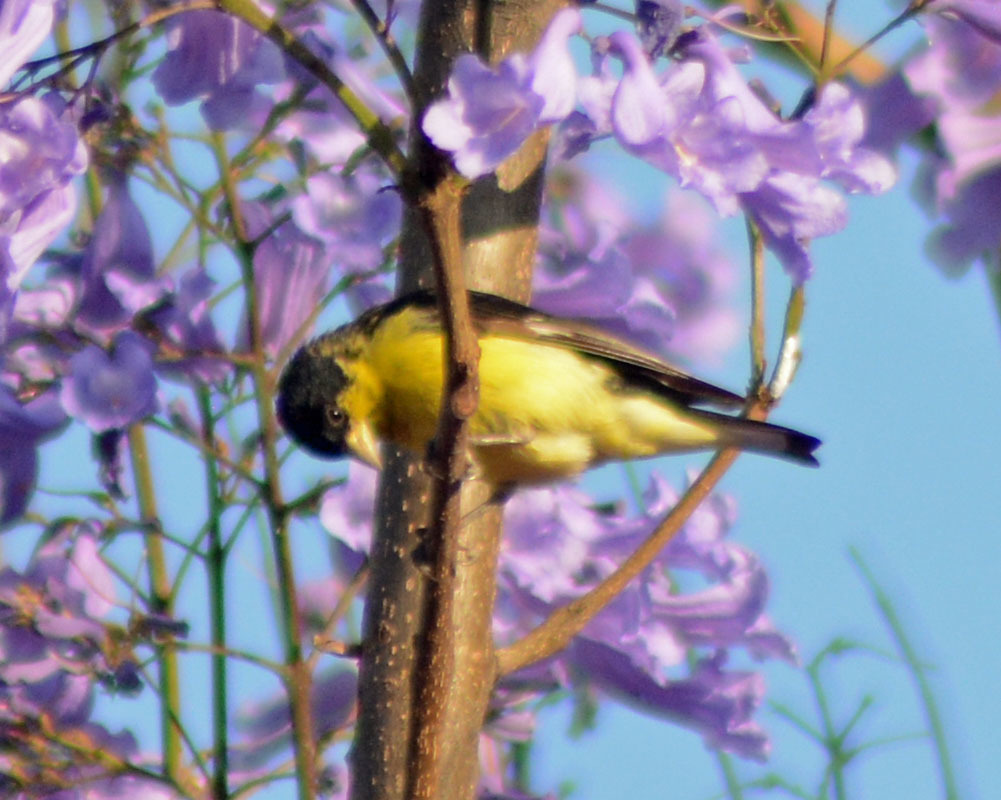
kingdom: Animalia
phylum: Chordata
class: Aves
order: Passeriformes
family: Fringillidae
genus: Spinus
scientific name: Spinus psaltria
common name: Lesser goldfinch
